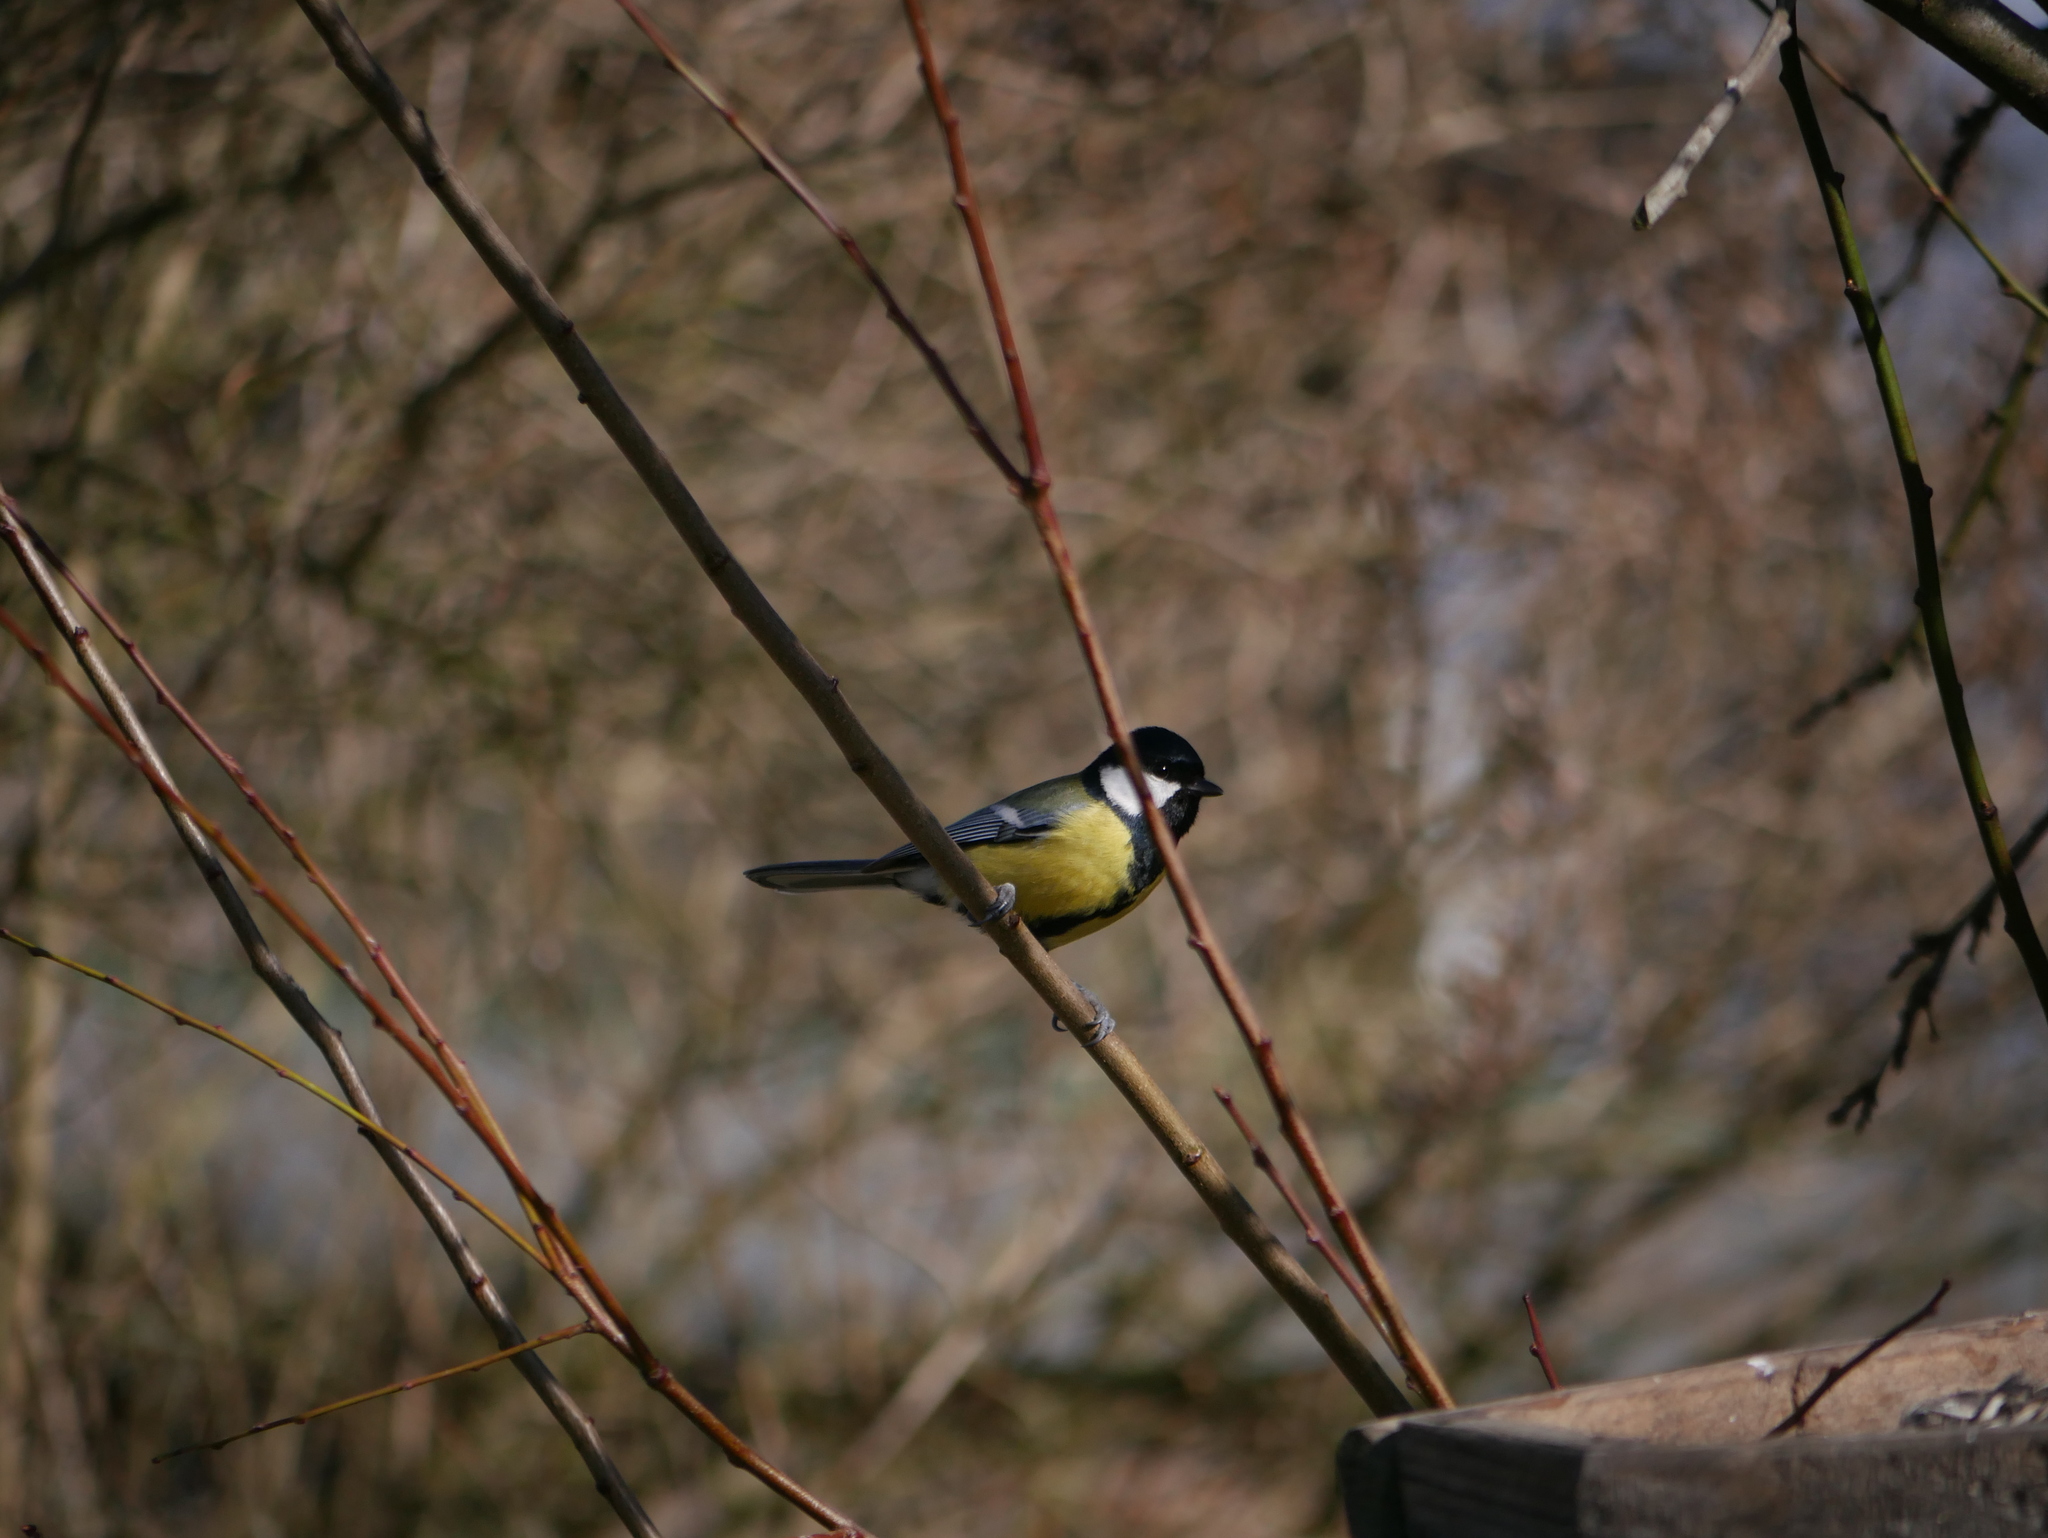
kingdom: Animalia
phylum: Chordata
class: Aves
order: Passeriformes
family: Paridae
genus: Parus
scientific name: Parus major
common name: Great tit
